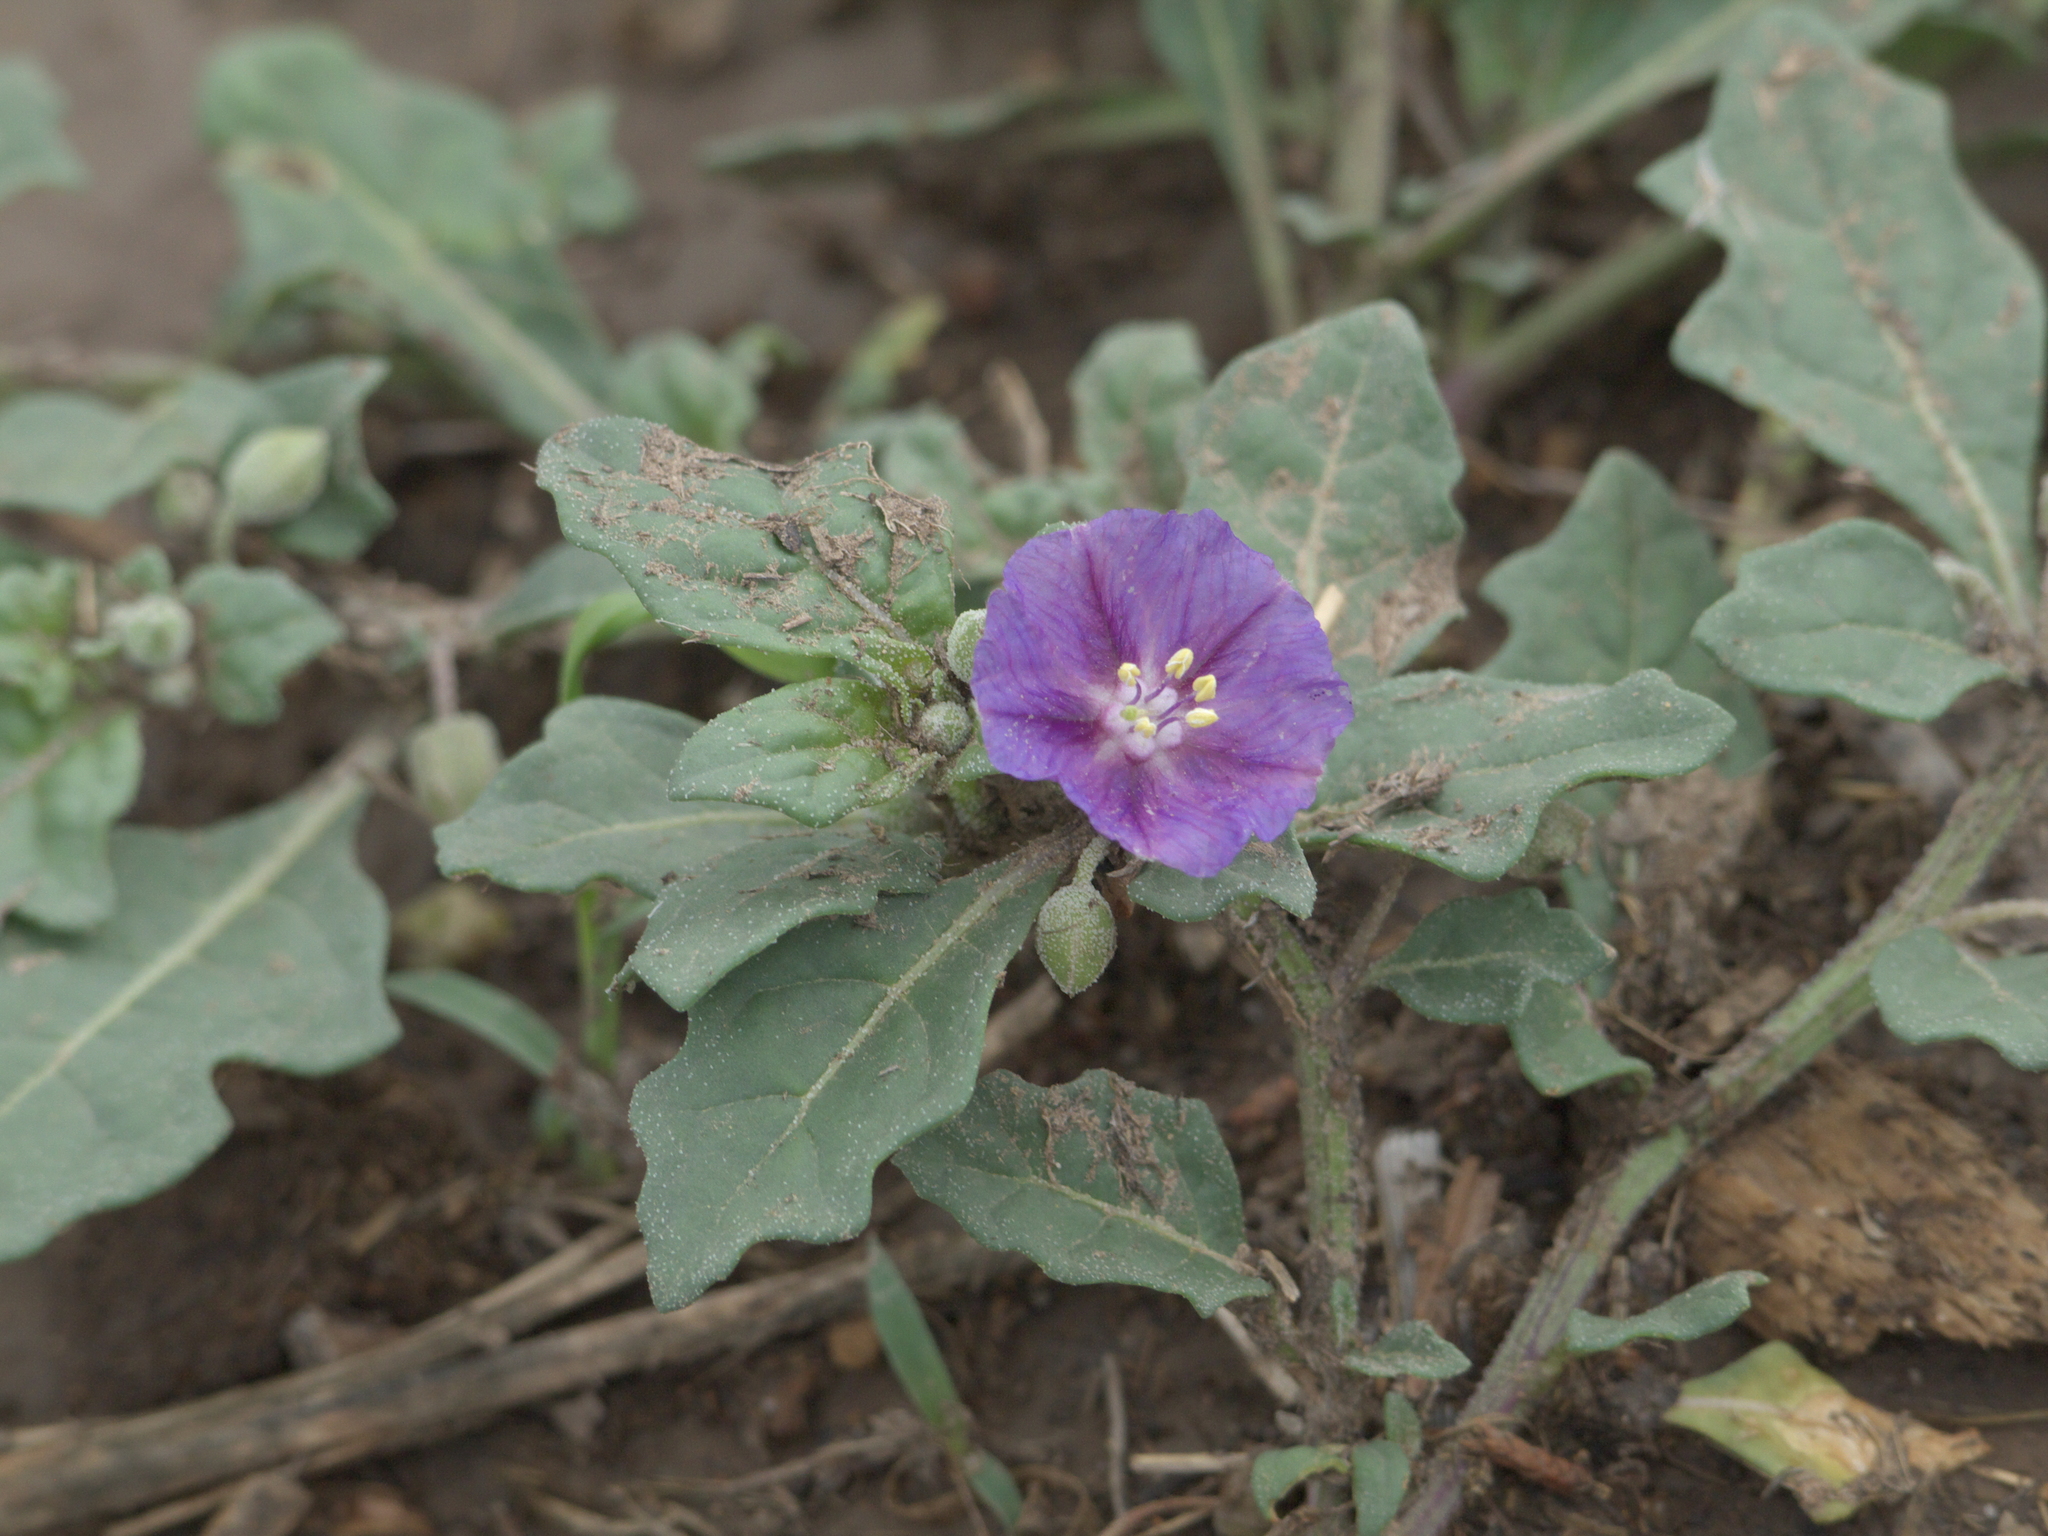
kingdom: Plantae
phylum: Tracheophyta
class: Magnoliopsida
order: Solanales
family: Solanaceae
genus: Quincula
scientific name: Quincula lobata
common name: Purple-ground-cherry
